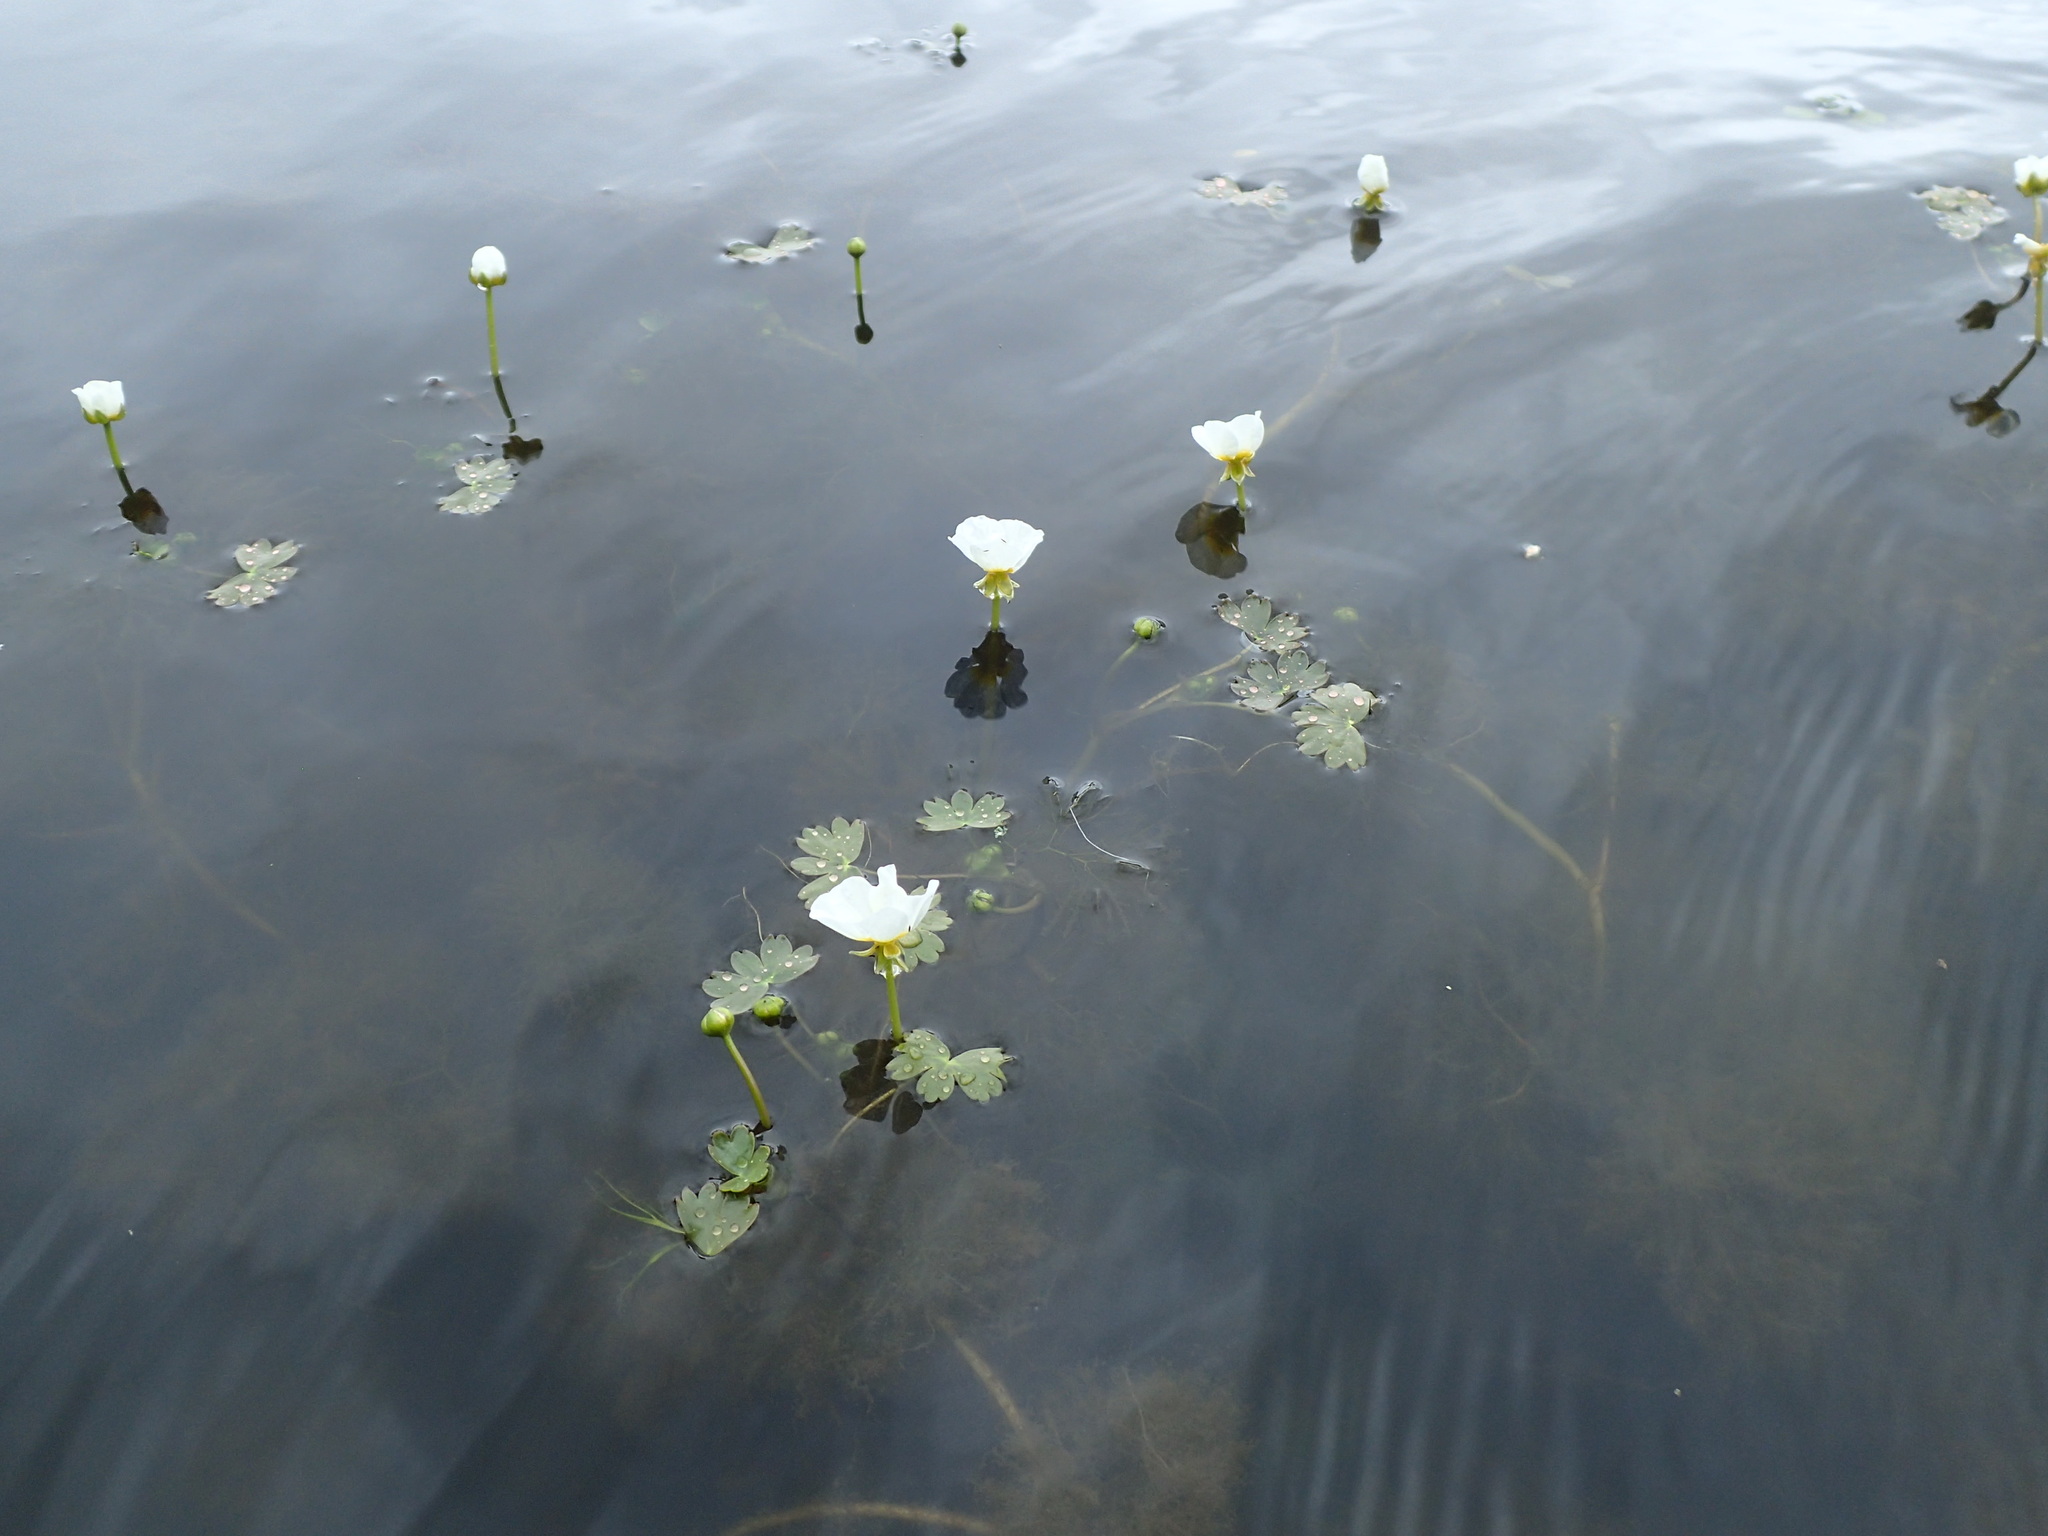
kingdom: Plantae
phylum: Tracheophyta
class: Magnoliopsida
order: Ranunculales
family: Ranunculaceae
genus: Ranunculus
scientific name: Ranunculus peltatus
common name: Pond water-crowfoot
